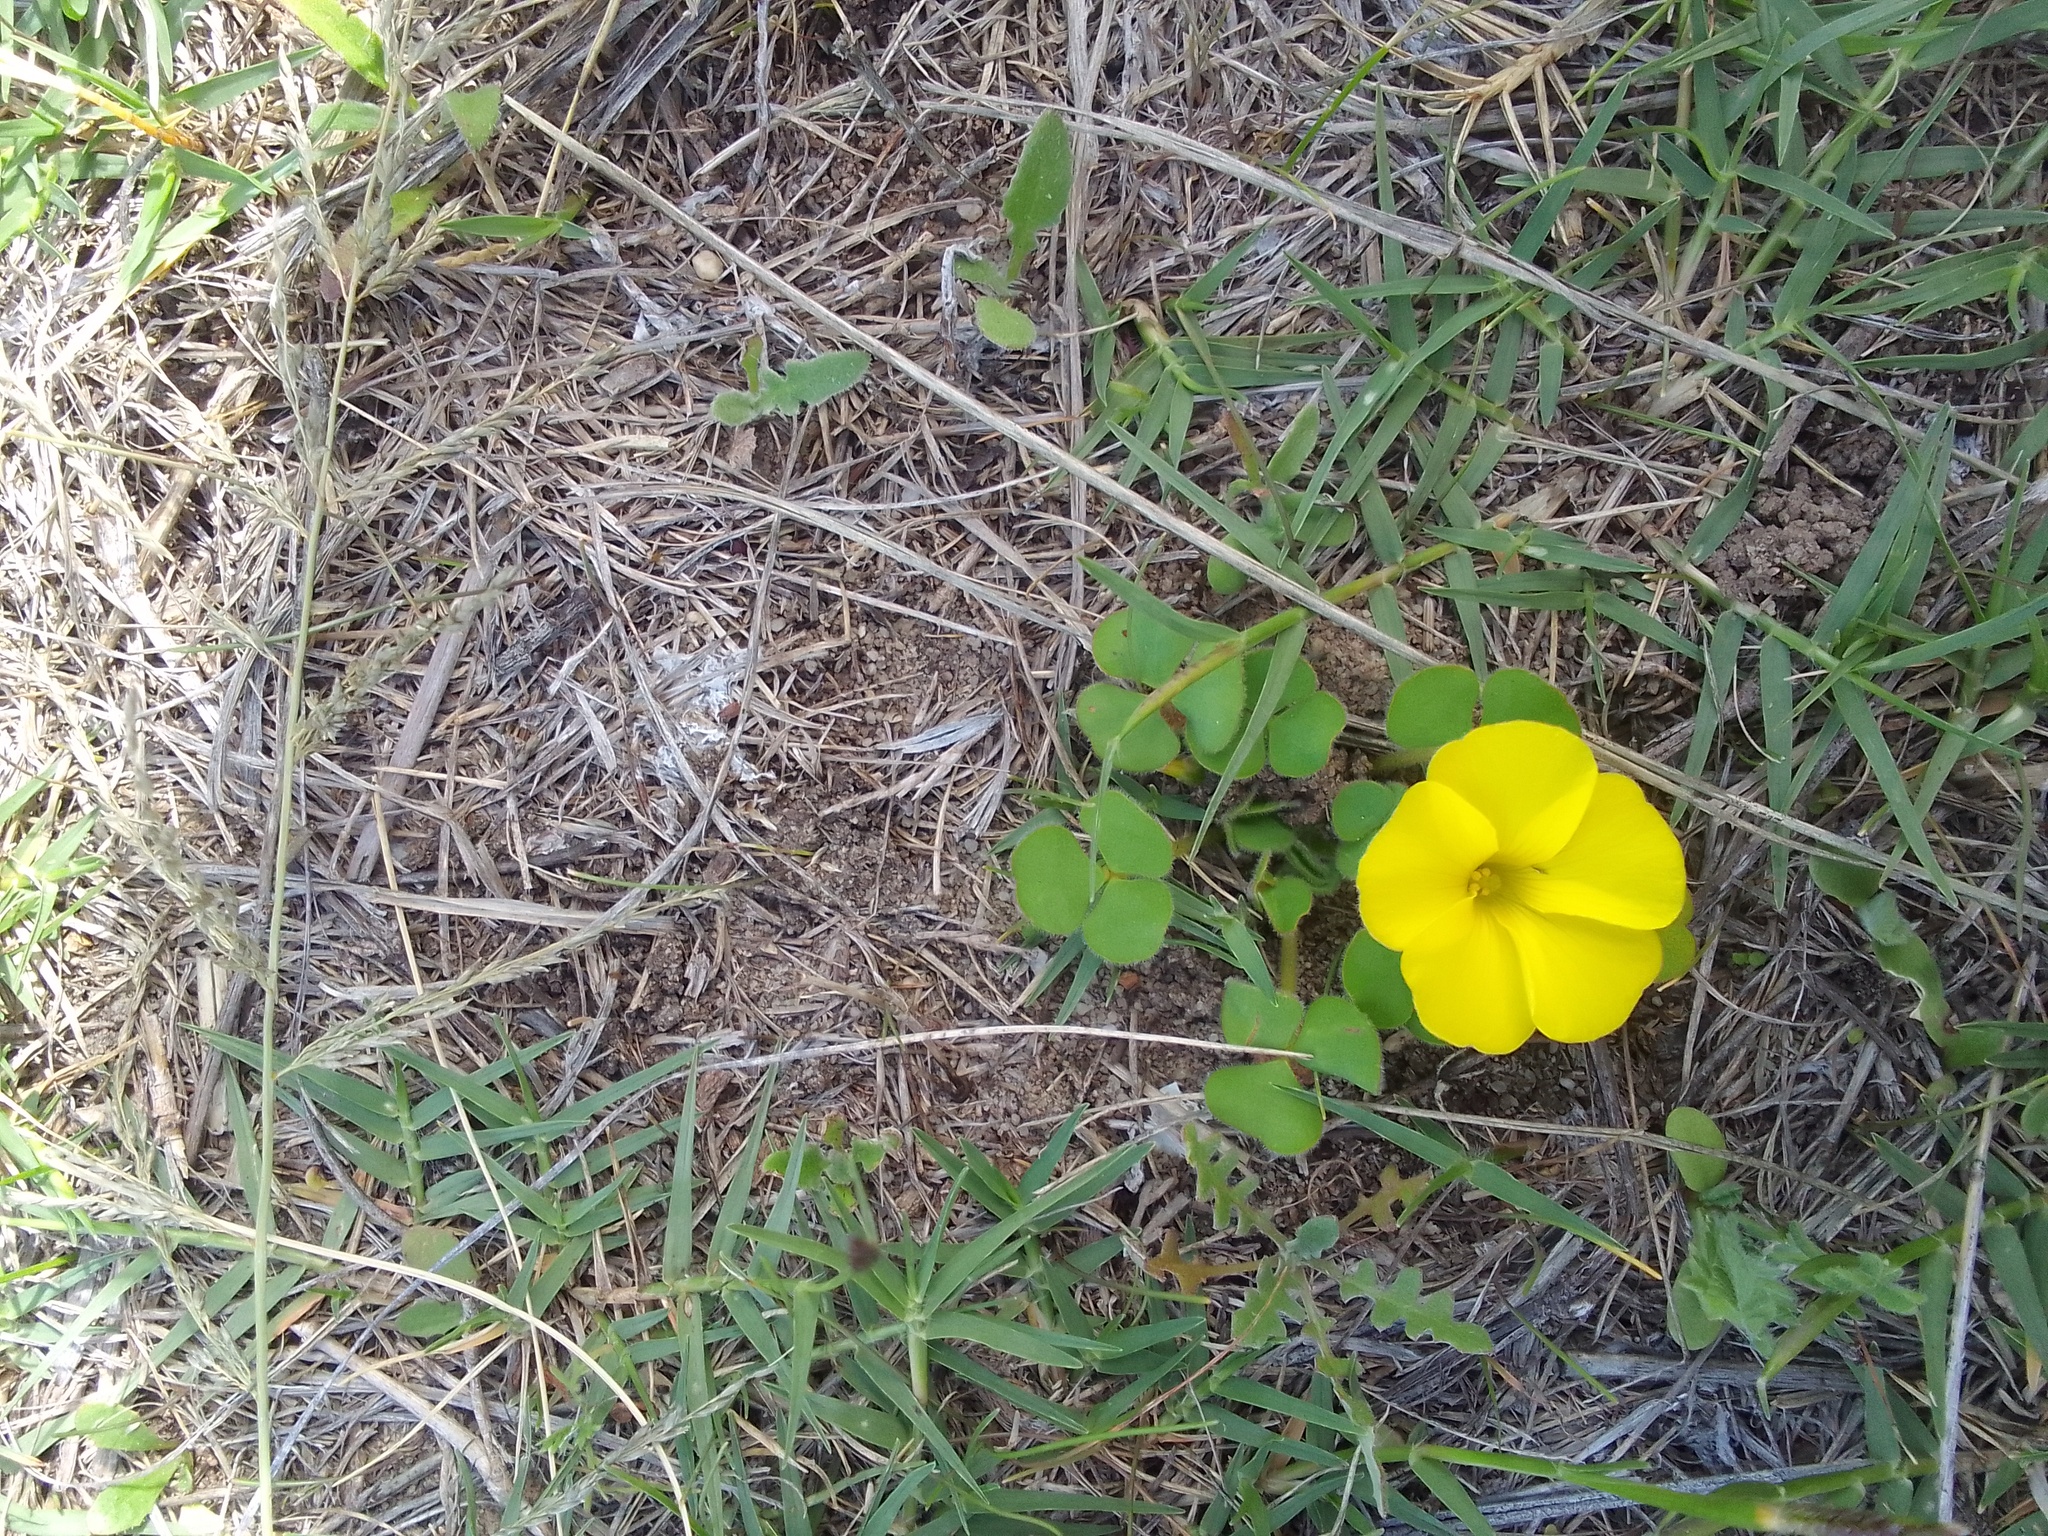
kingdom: Plantae
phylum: Tracheophyta
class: Magnoliopsida
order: Oxalidales
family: Oxalidaceae
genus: Oxalis
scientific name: Oxalis luteola
